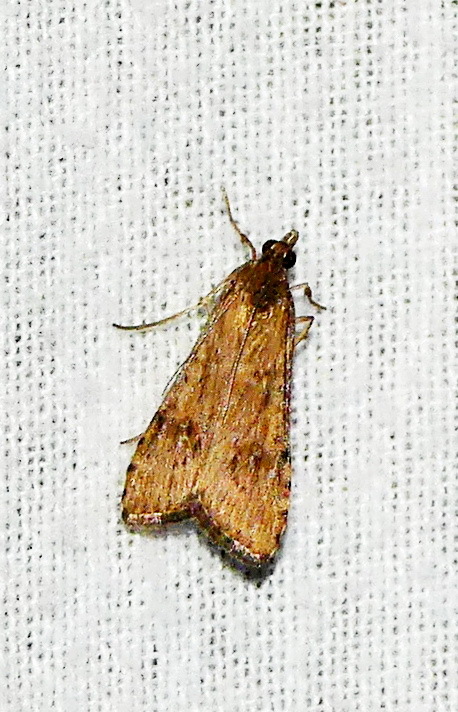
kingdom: Animalia
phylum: Arthropoda
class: Insecta
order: Lepidoptera
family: Crambidae
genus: Nomophila
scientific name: Nomophila nearctica
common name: American rush veneer
